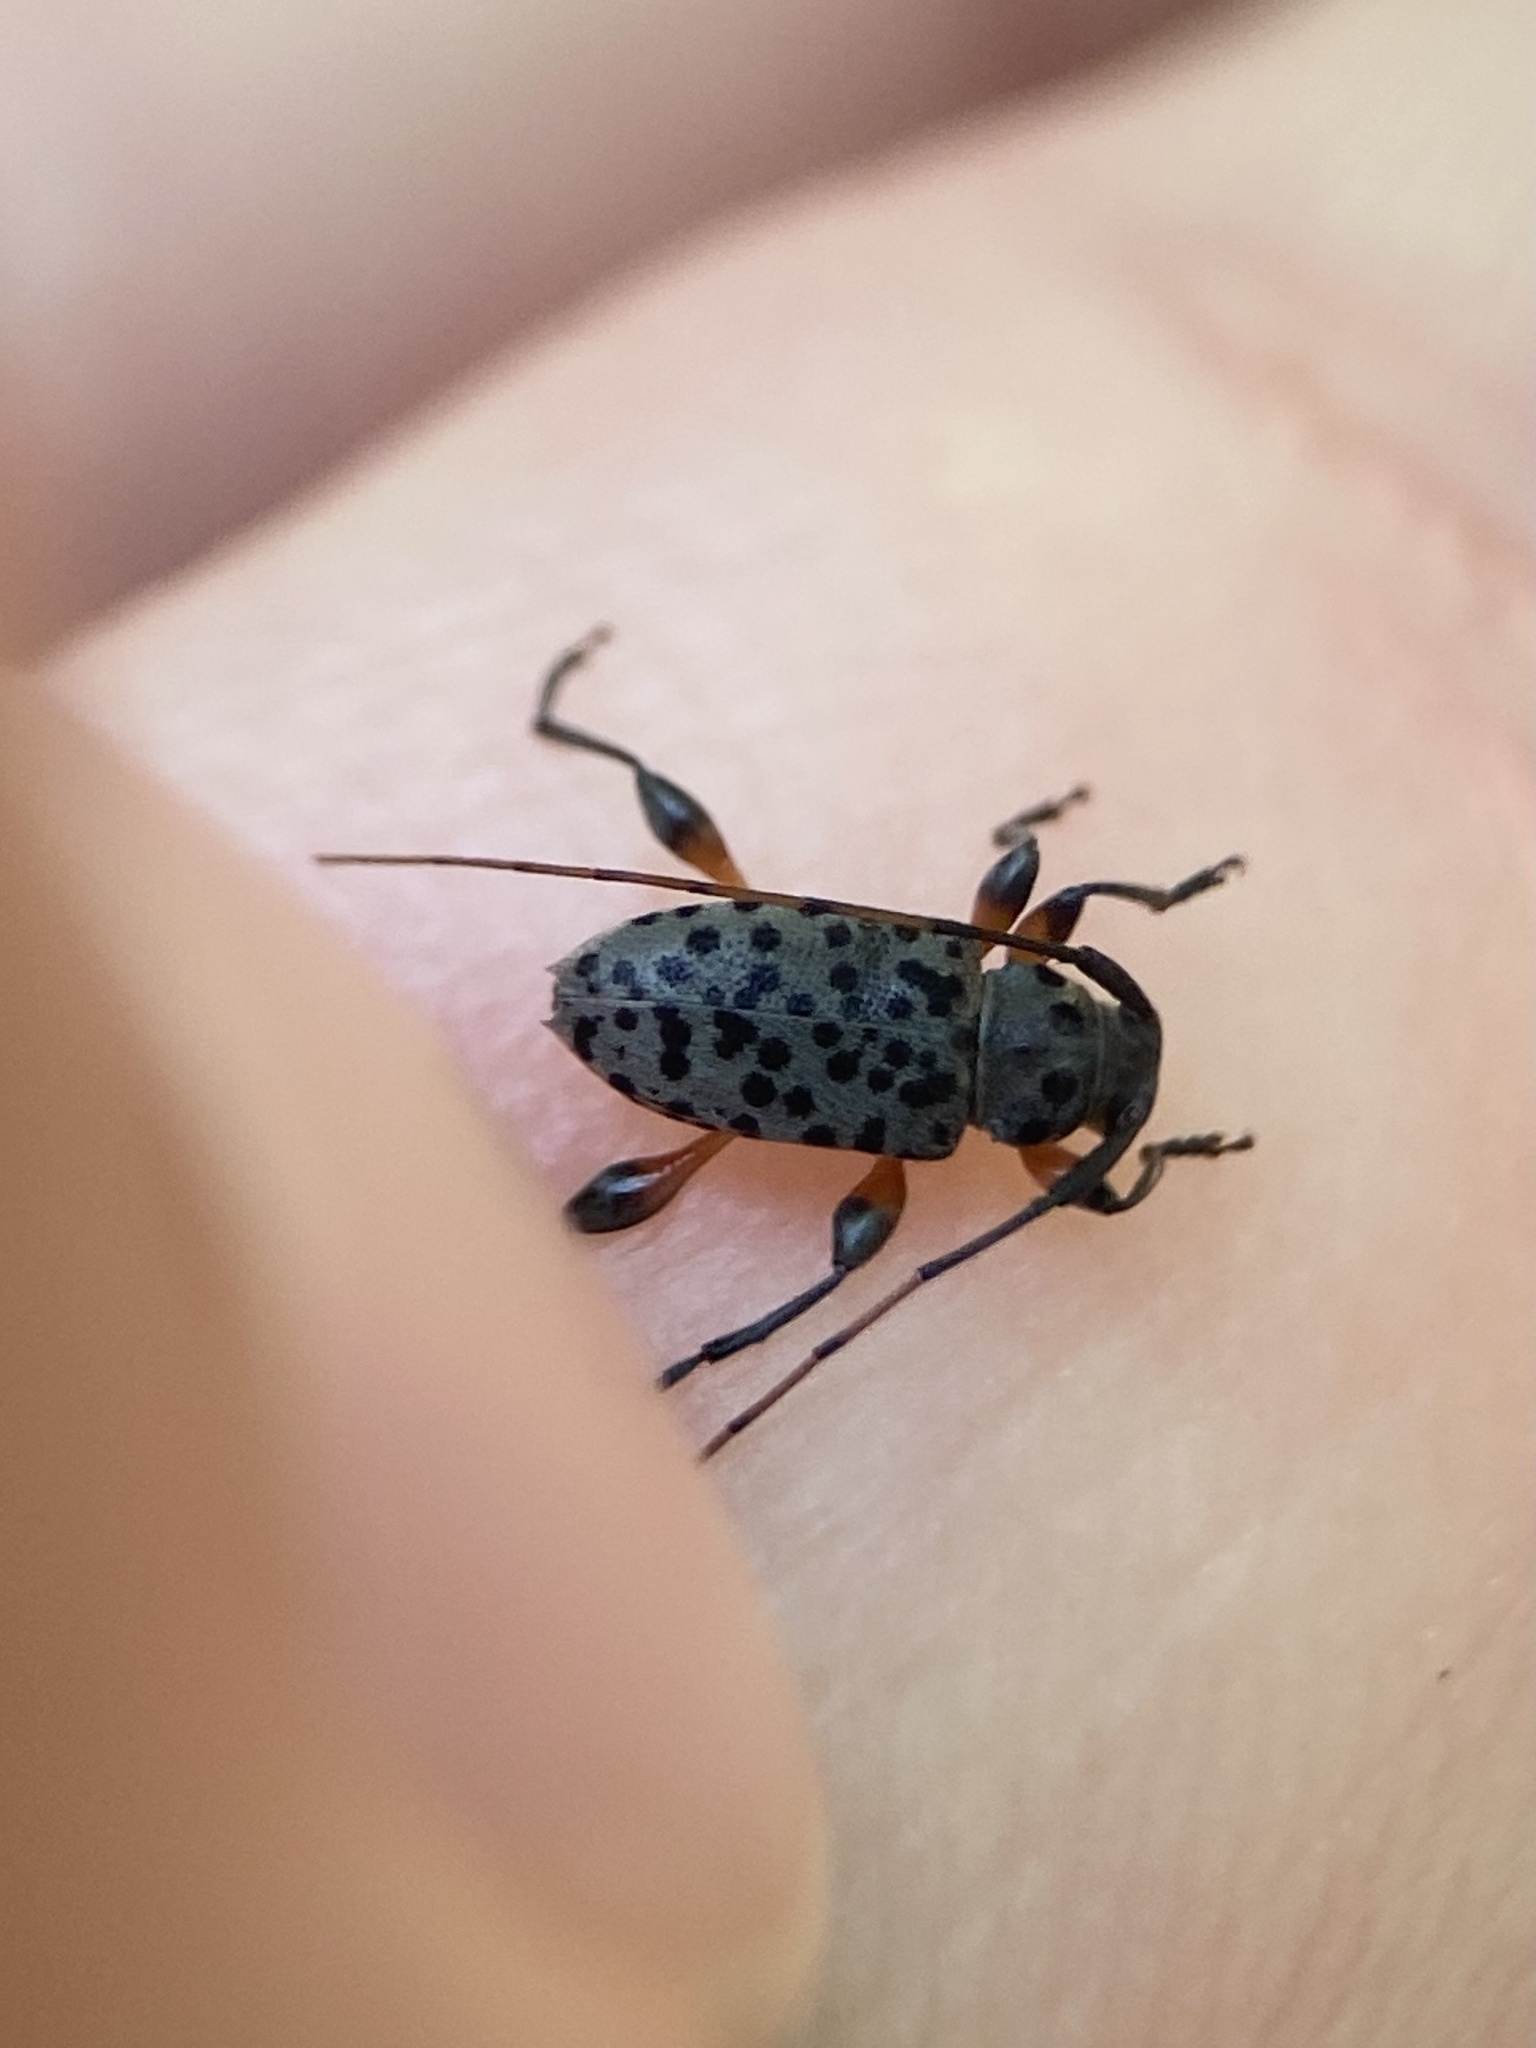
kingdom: Animalia
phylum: Arthropoda
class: Insecta
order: Coleoptera
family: Cerambycidae
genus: Hyperplatys
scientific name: Hyperplatys aspersa
